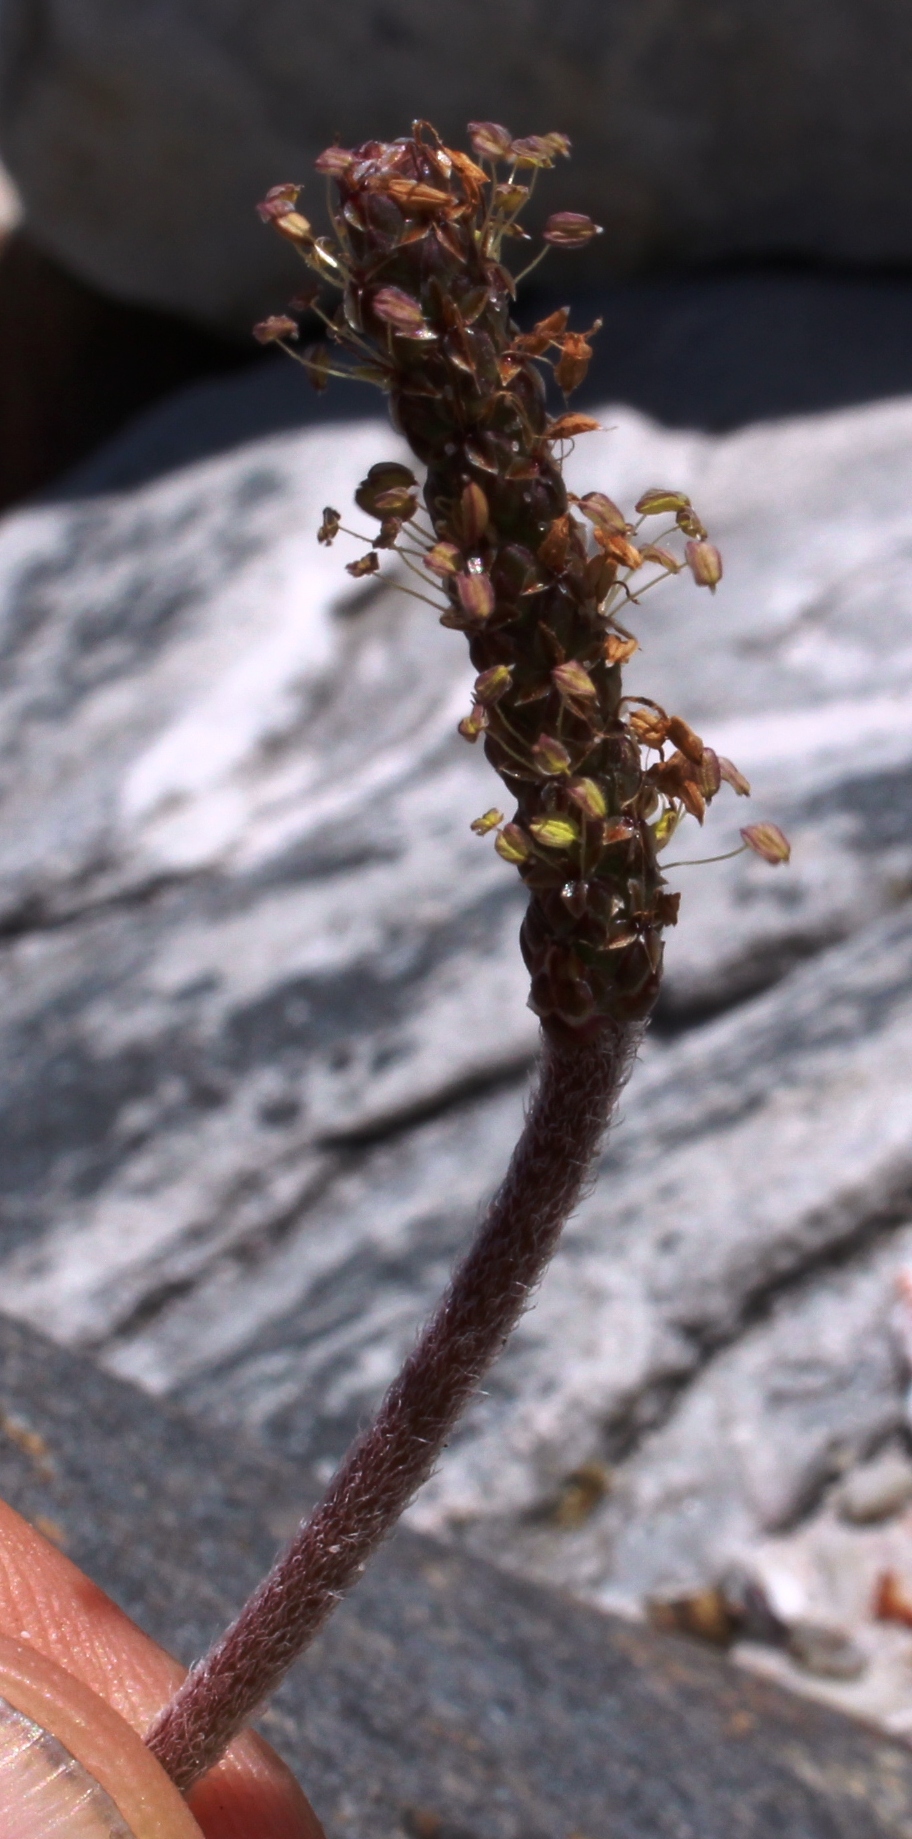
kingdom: Plantae
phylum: Tracheophyta
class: Magnoliopsida
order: Lamiales
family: Plantaginaceae
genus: Plantago
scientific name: Plantago carnosa
